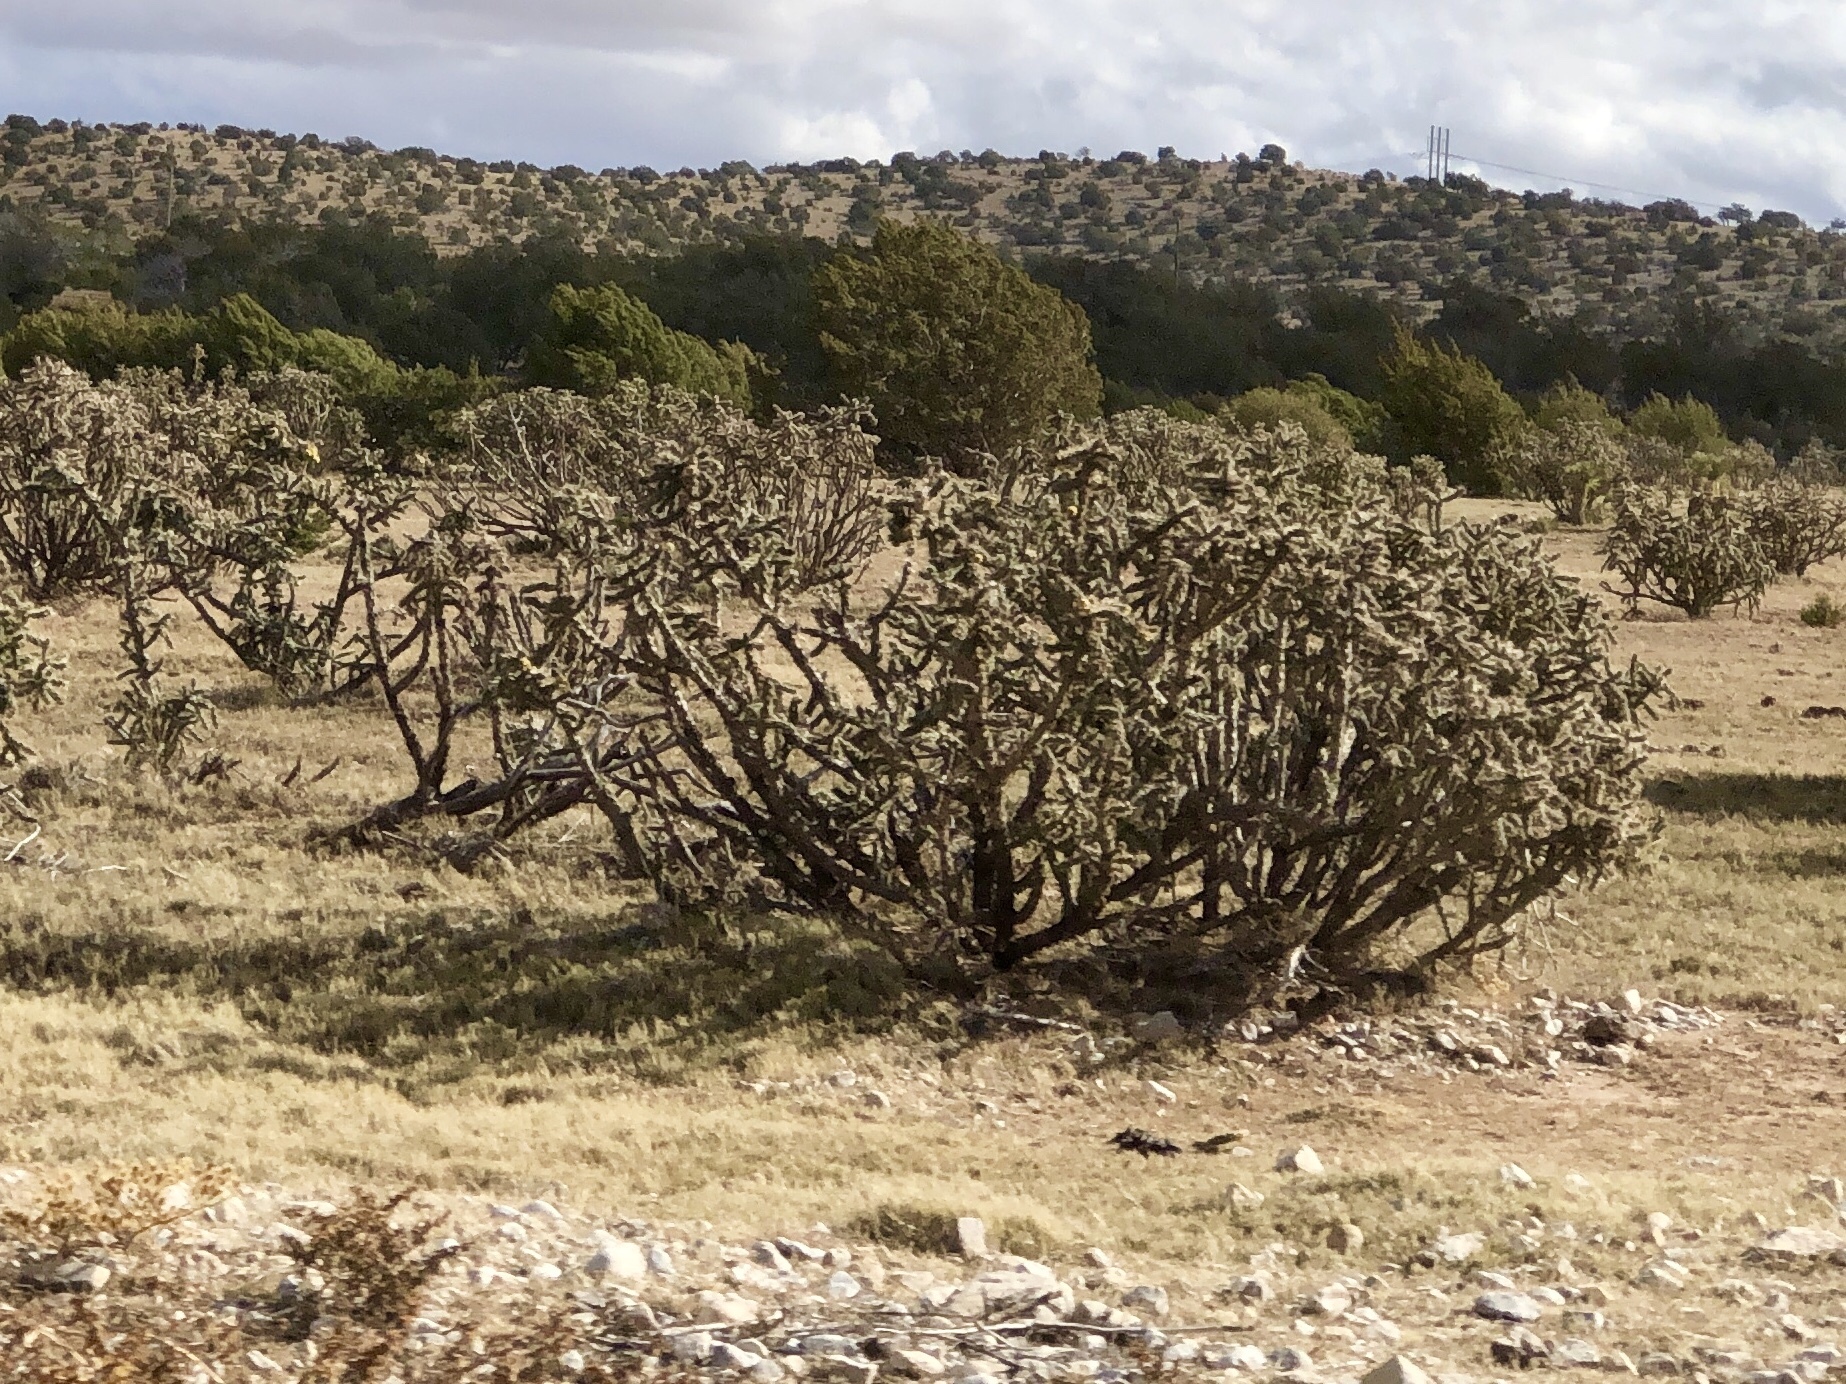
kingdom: Plantae
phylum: Tracheophyta
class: Magnoliopsida
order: Caryophyllales
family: Cactaceae
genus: Cylindropuntia
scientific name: Cylindropuntia imbricata
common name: Candelabrum cactus
